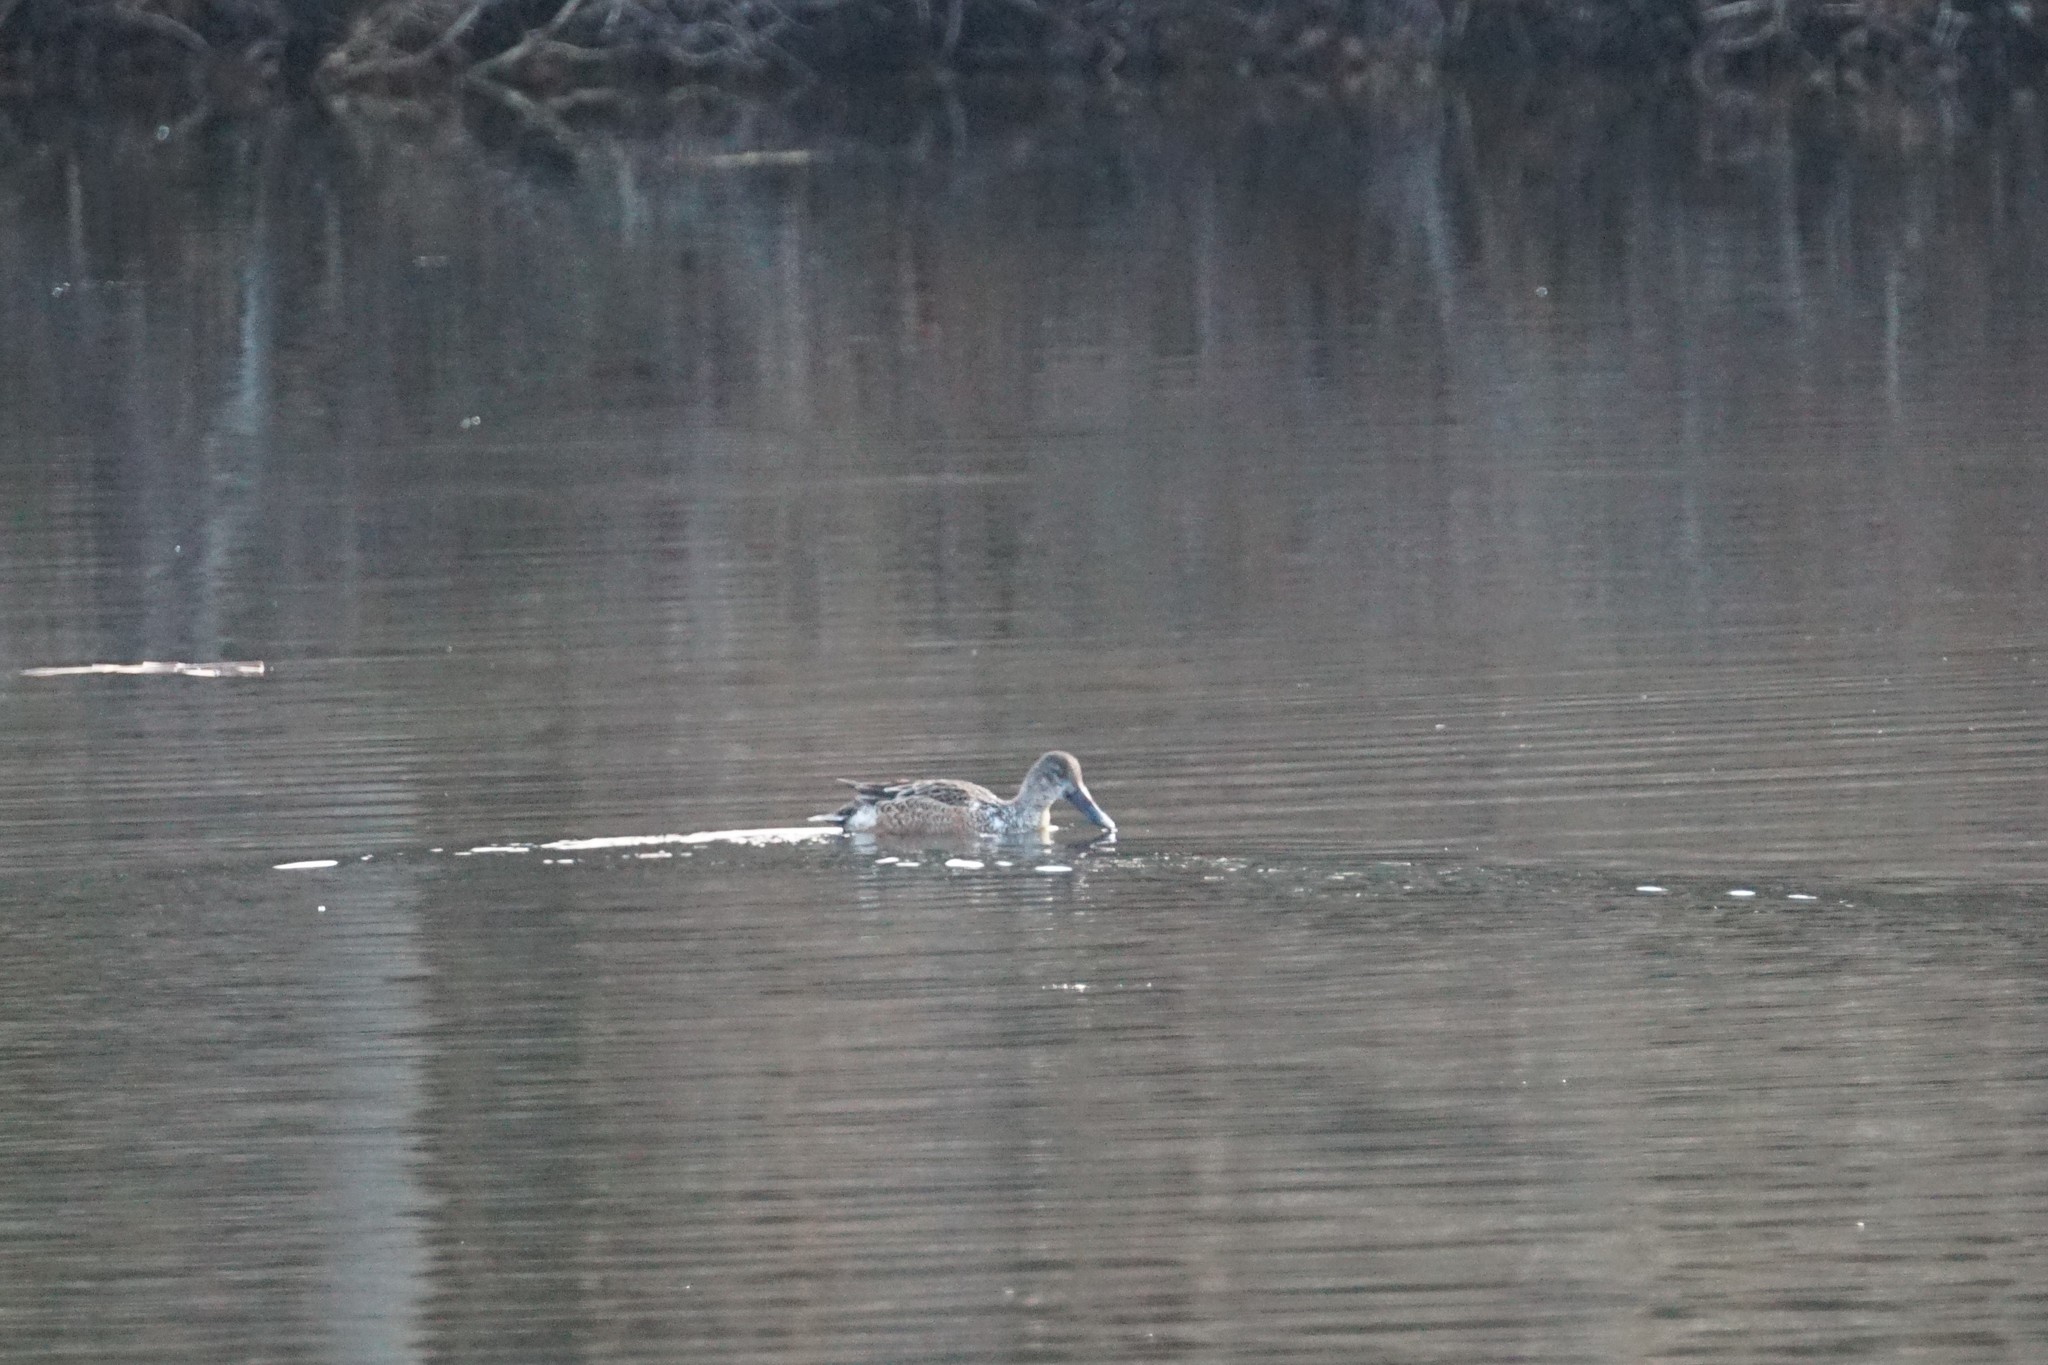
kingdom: Animalia
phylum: Chordata
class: Aves
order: Anseriformes
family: Anatidae
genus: Spatula
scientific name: Spatula clypeata
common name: Northern shoveler
